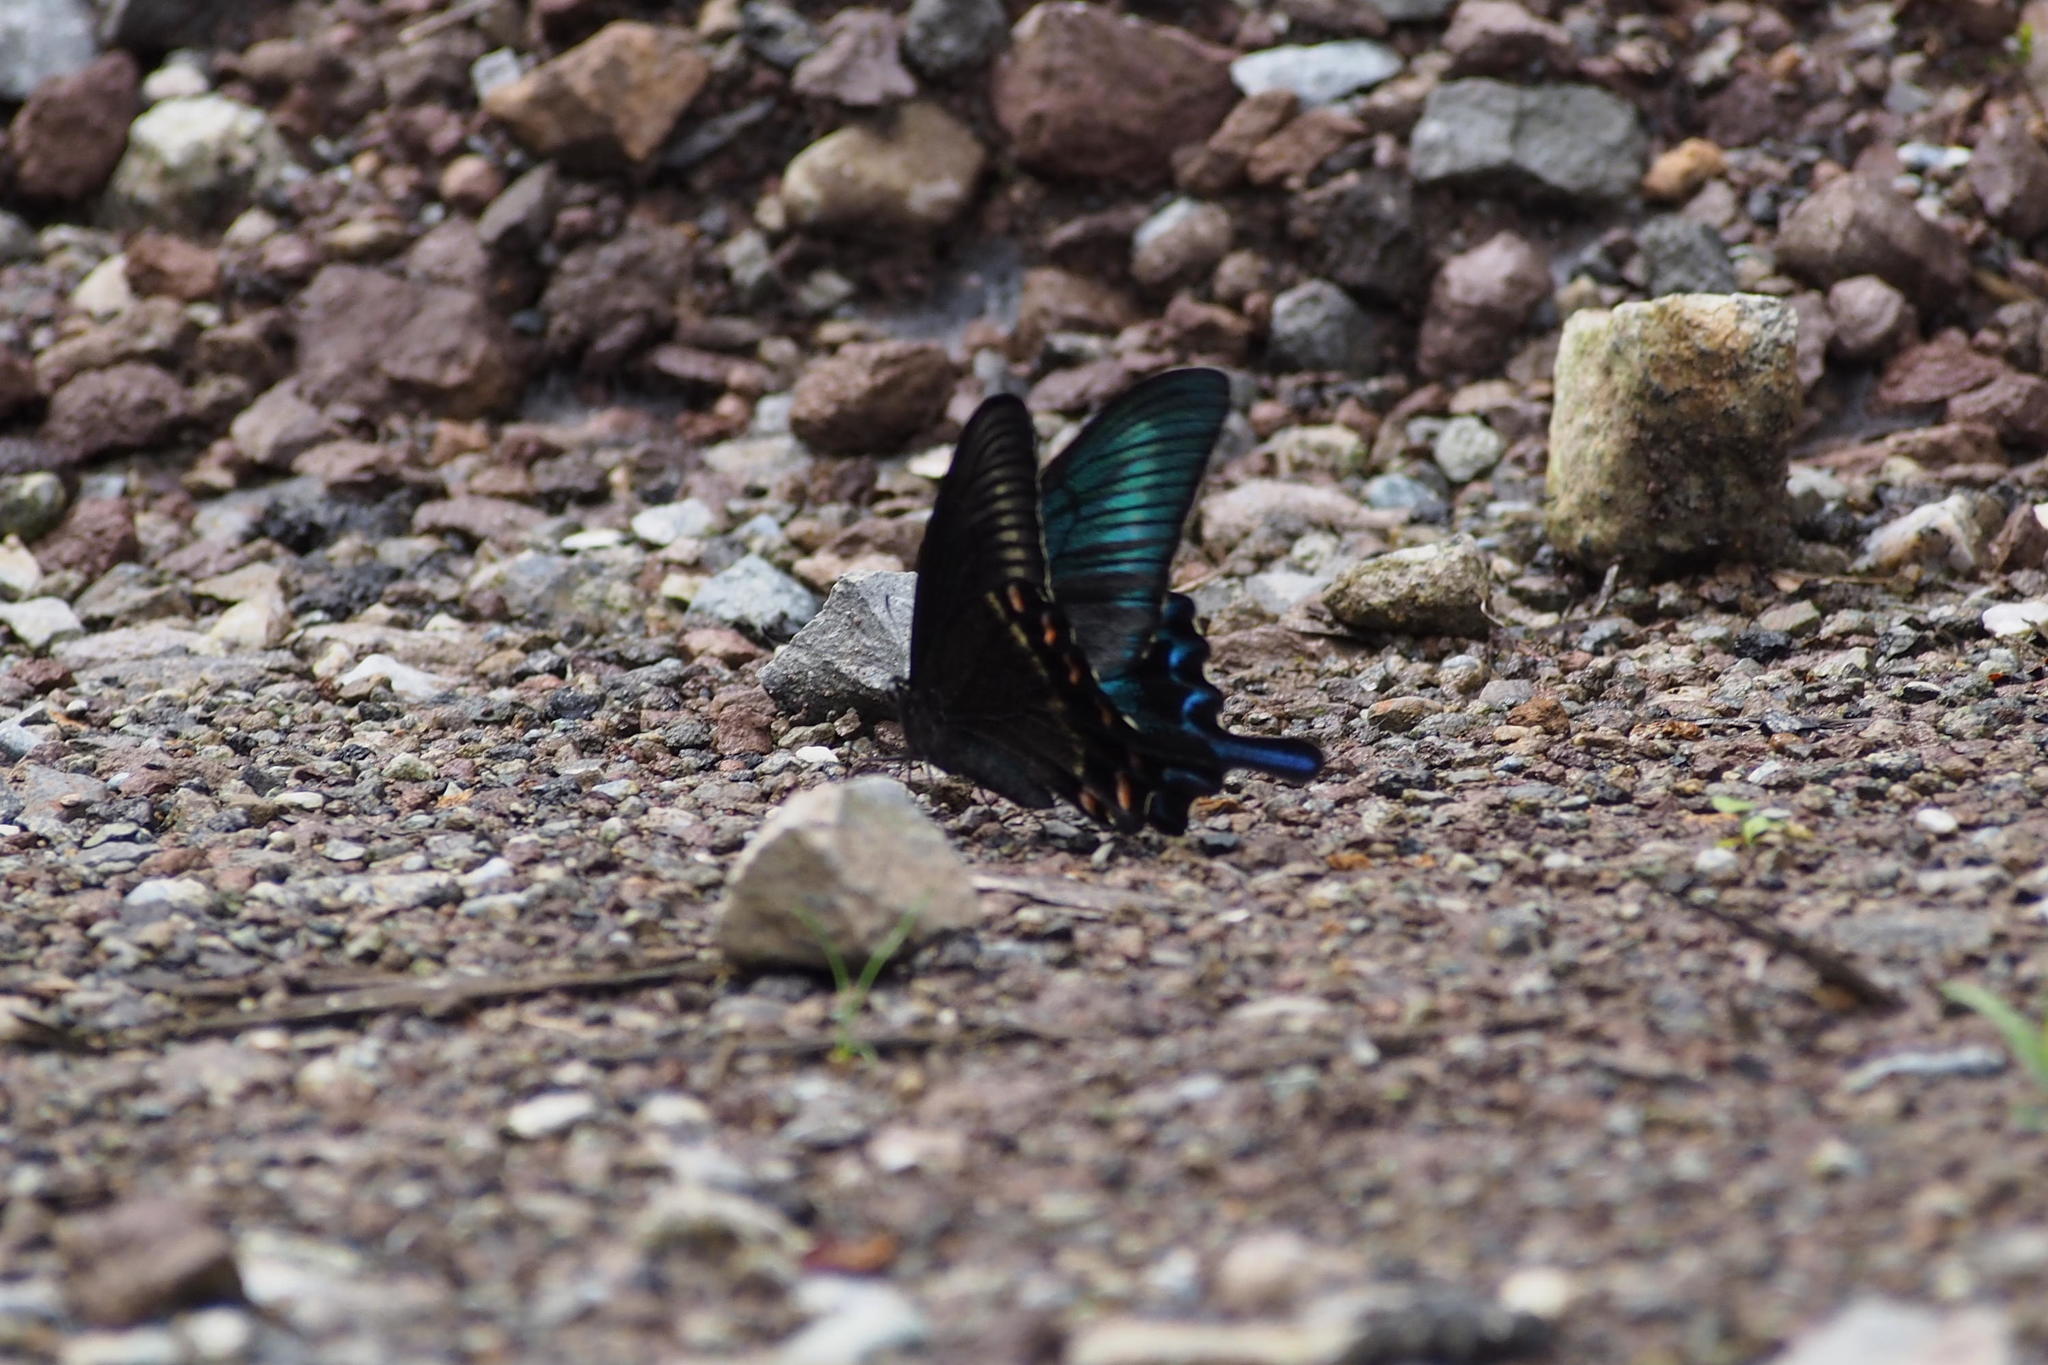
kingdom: Animalia
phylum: Arthropoda
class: Insecta
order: Lepidoptera
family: Papilionidae
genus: Papilio
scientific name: Papilio maackii
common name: Alpine black swallowtail
